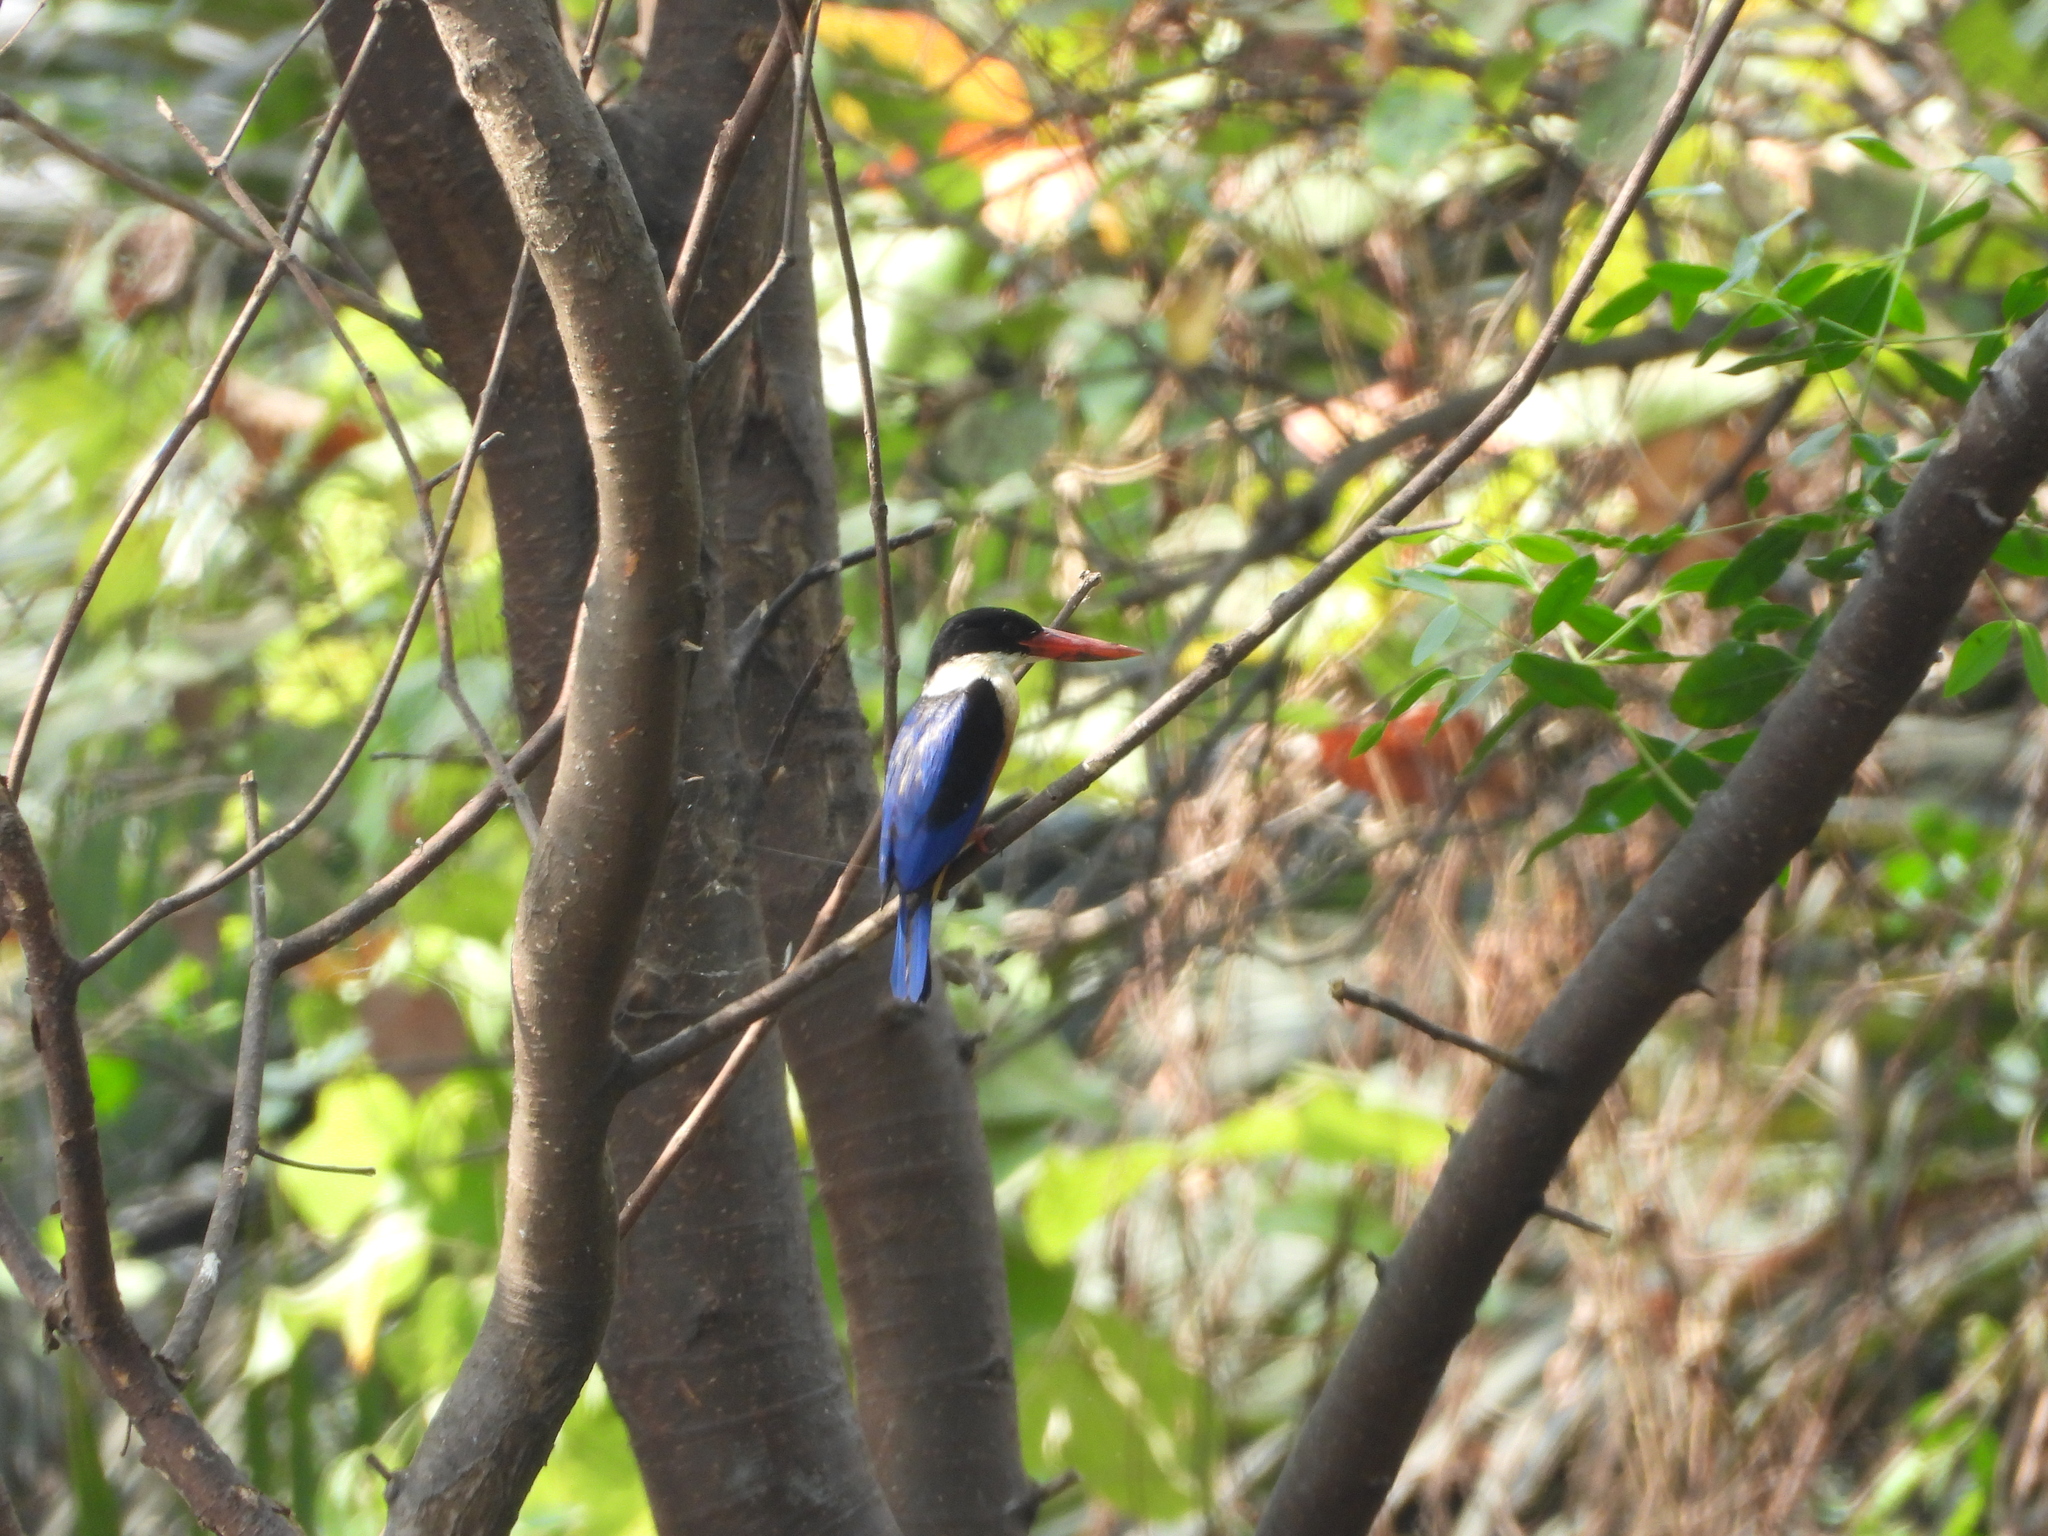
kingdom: Animalia
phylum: Chordata
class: Aves
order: Coraciiformes
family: Alcedinidae
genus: Halcyon
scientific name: Halcyon pileata
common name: Black-capped kingfisher
